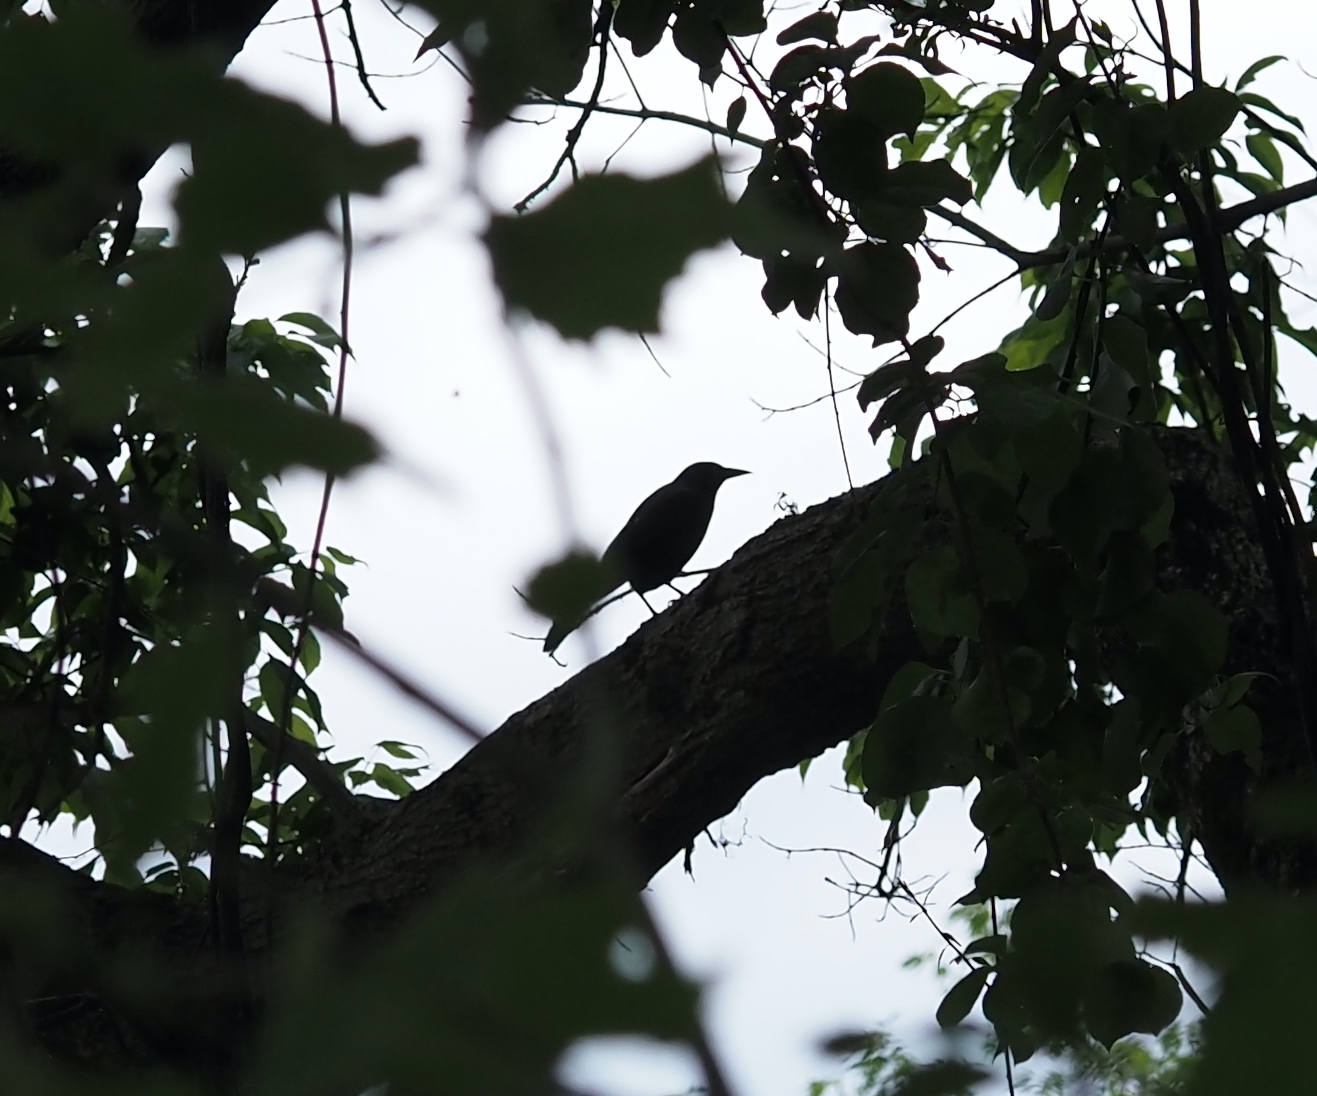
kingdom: Animalia
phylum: Chordata
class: Aves
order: Passeriformes
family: Icteridae
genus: Quiscalus
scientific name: Quiscalus quiscula
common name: Common grackle
